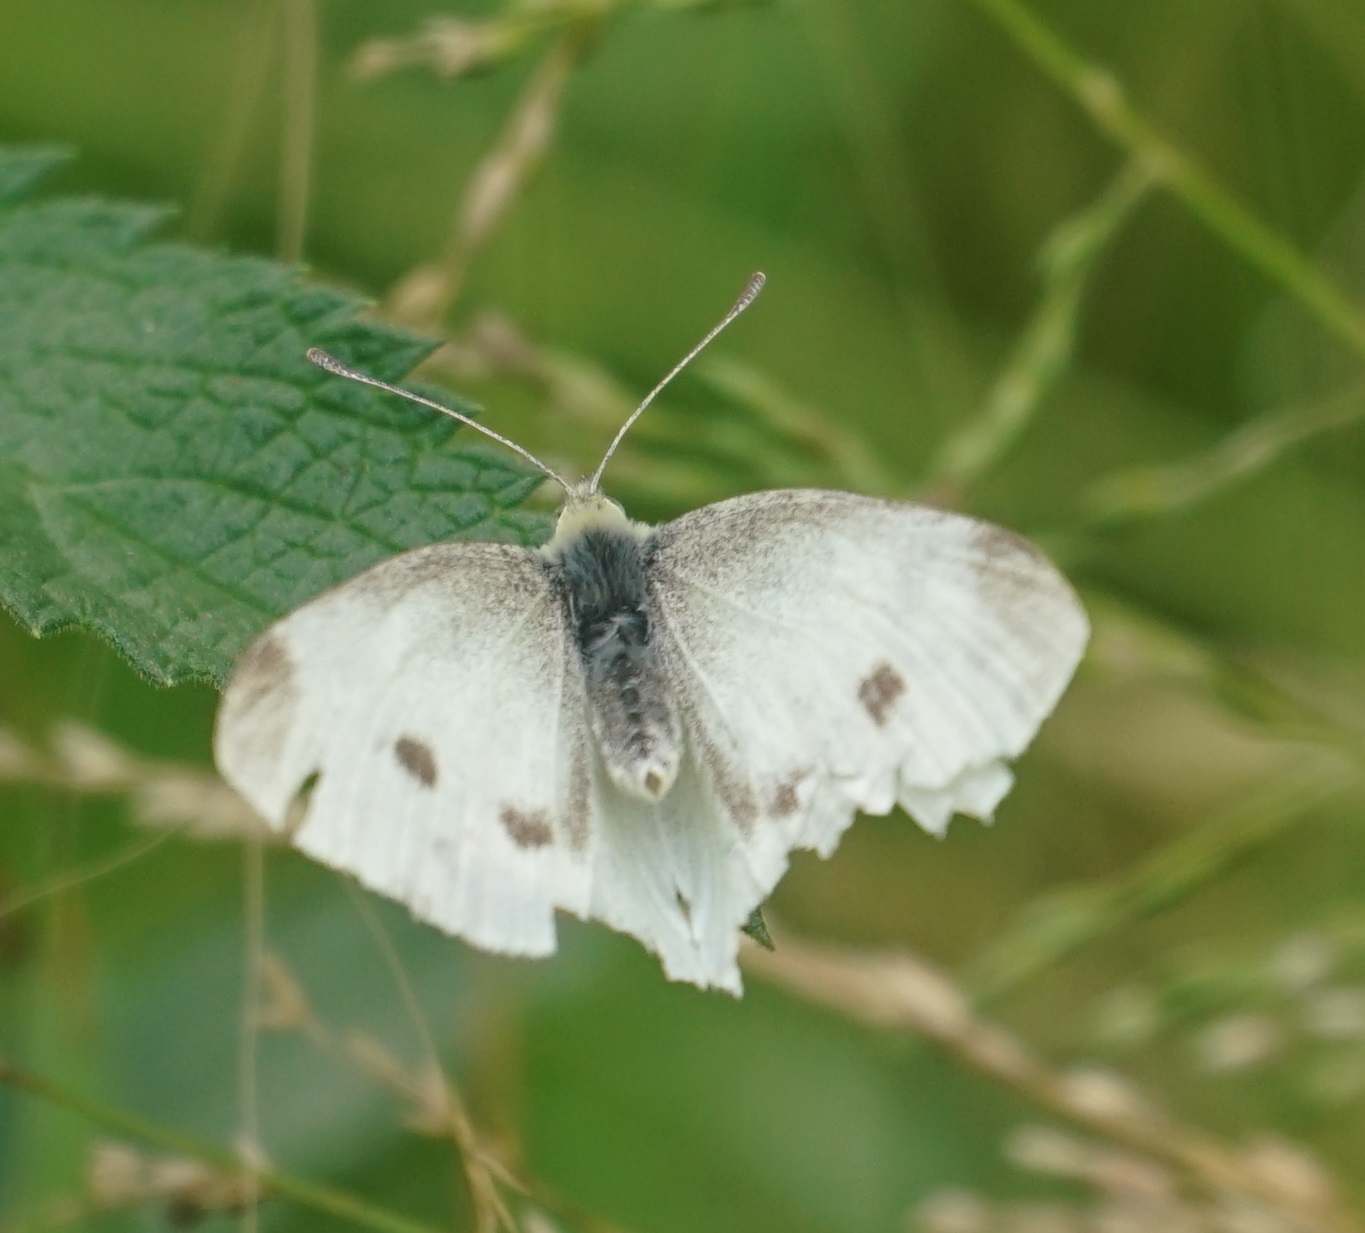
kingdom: Animalia
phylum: Arthropoda
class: Insecta
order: Lepidoptera
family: Pieridae
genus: Pieris
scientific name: Pieris rapae
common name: Small white
